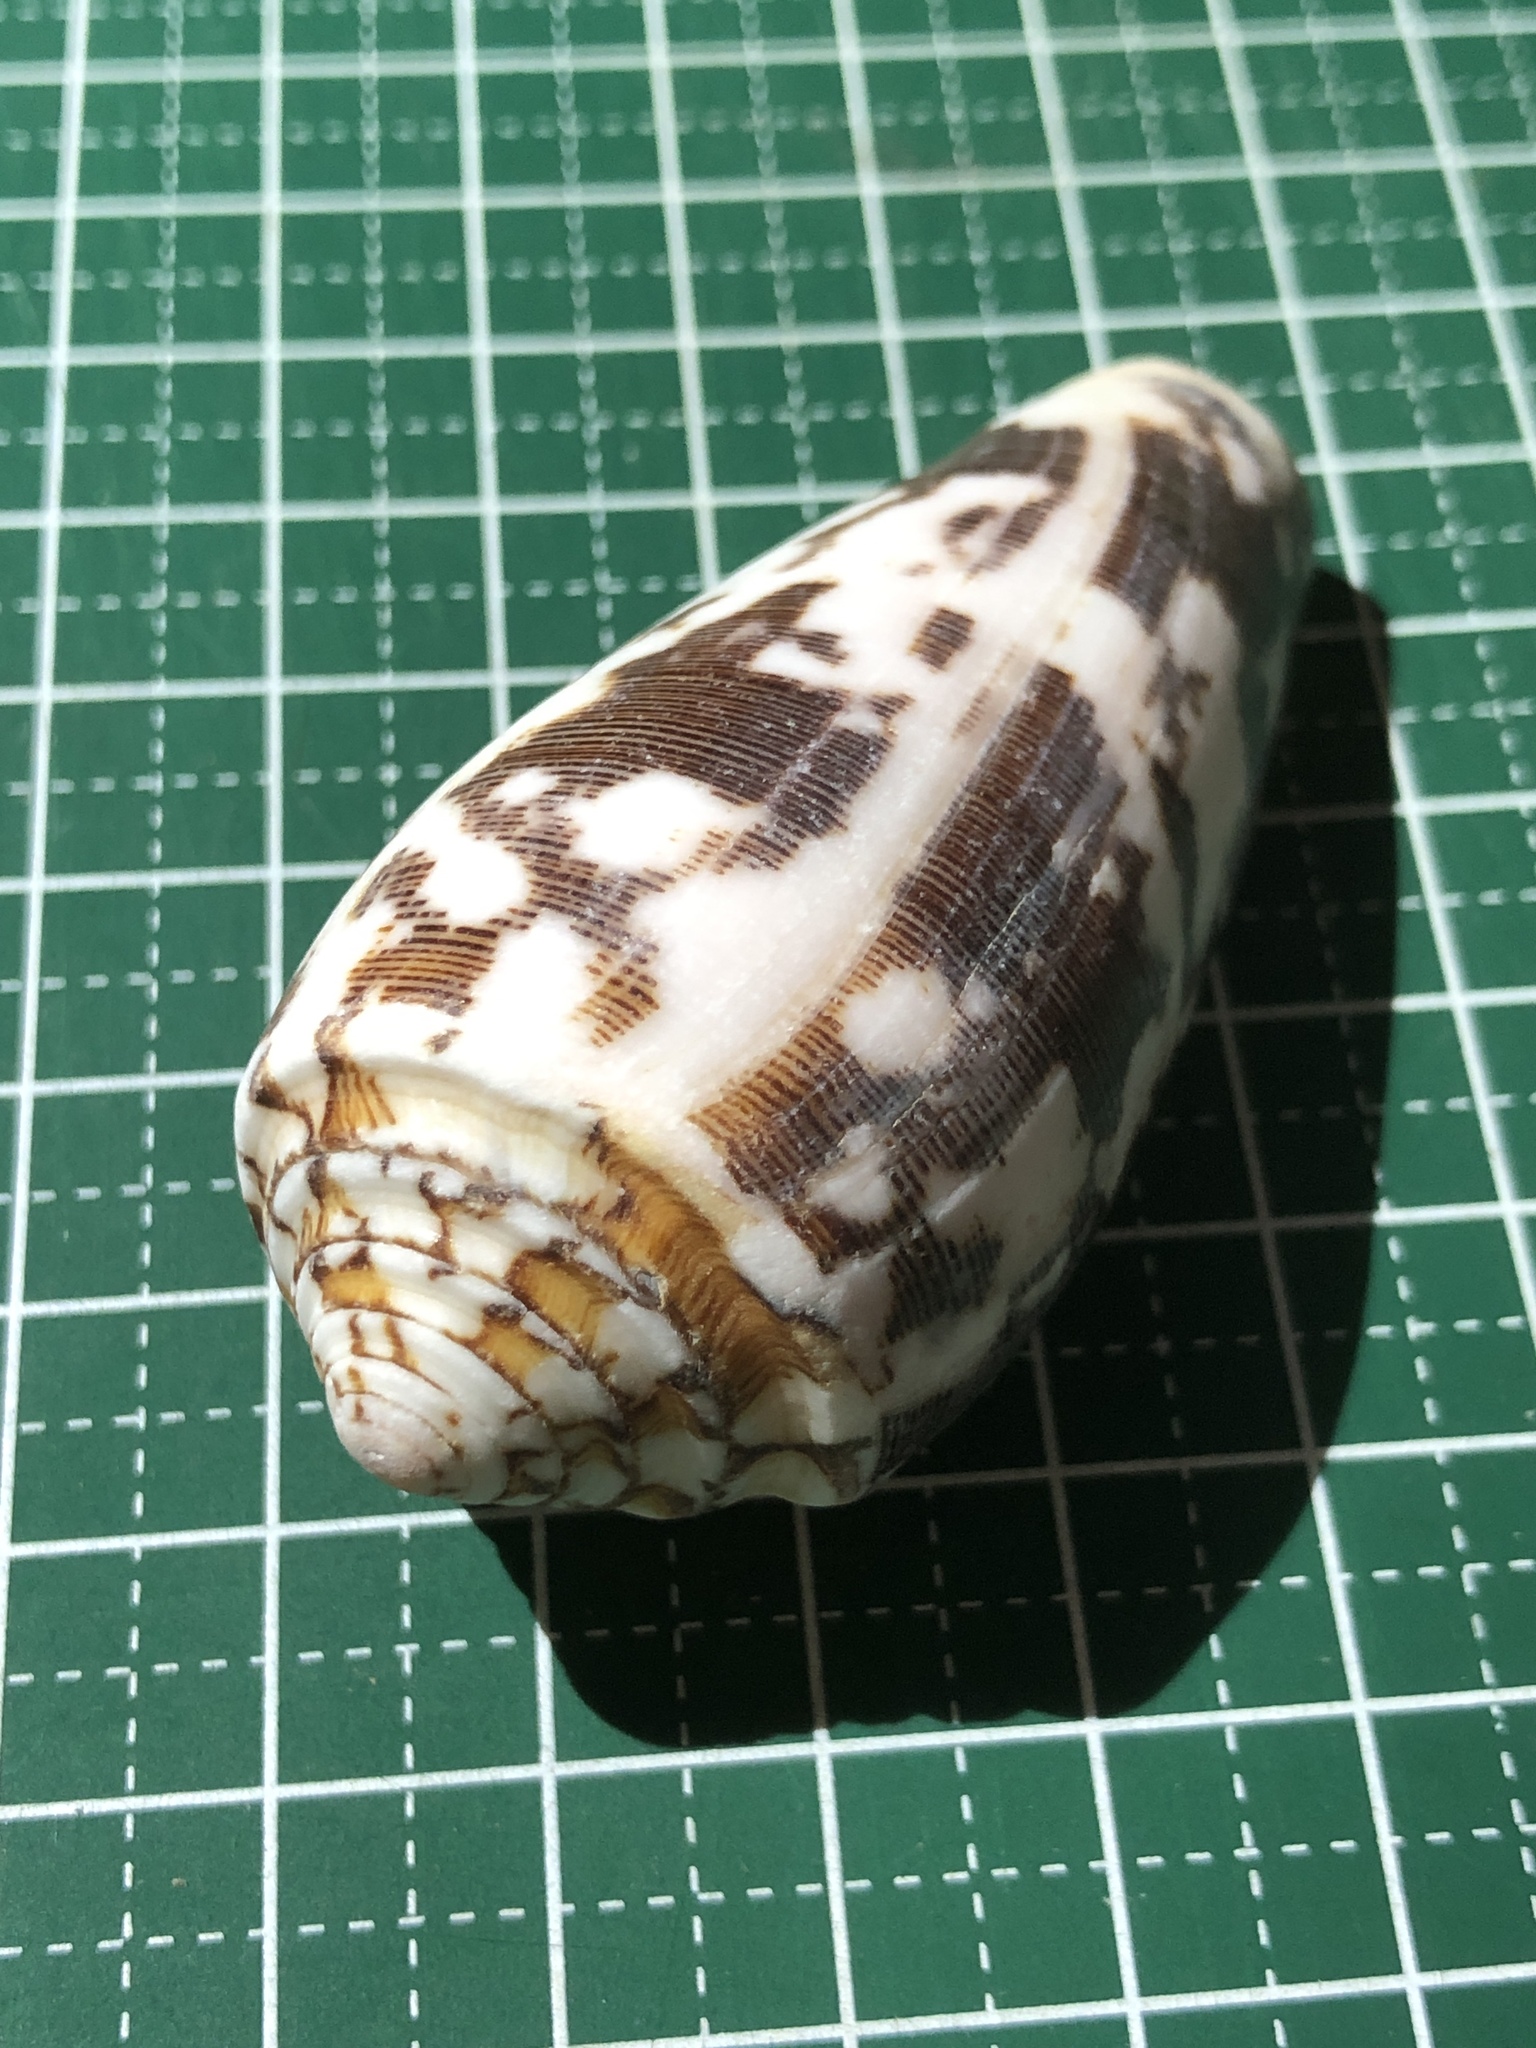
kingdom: Animalia
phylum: Mollusca
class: Gastropoda
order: Neogastropoda
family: Conidae
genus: Conus
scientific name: Conus striatus
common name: Striated cone
